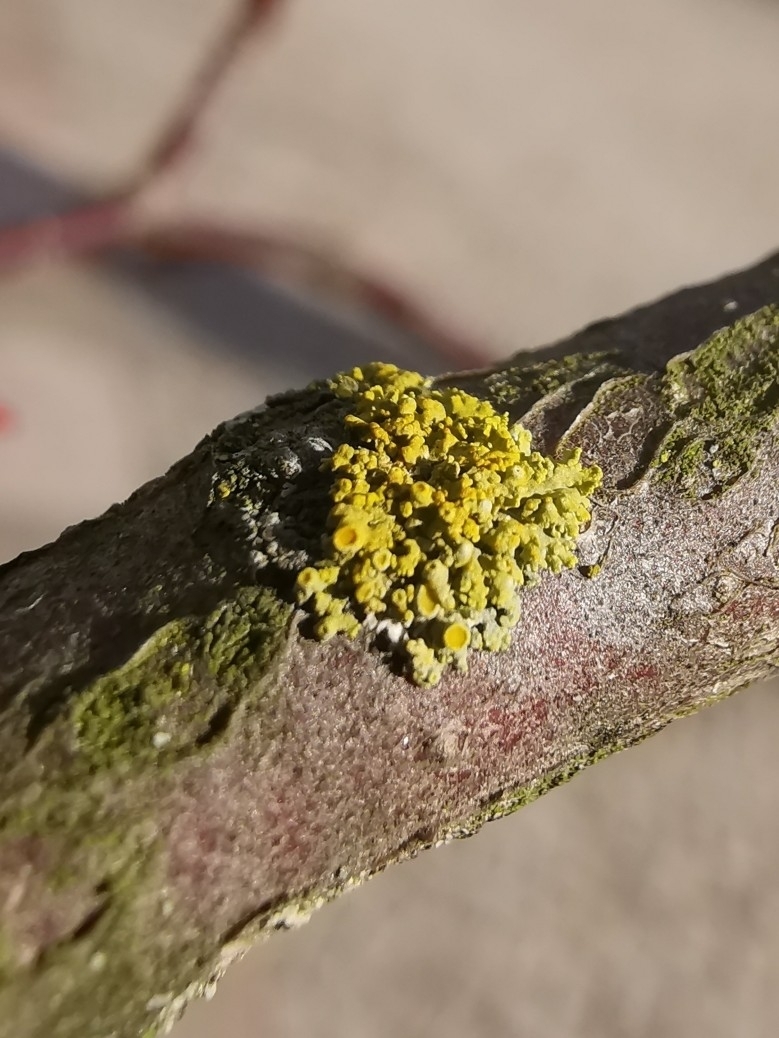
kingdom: Fungi
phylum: Ascomycota
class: Lecanoromycetes
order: Teloschistales
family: Teloschistaceae
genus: Polycauliona
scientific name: Polycauliona polycarpa
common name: Pin-cushion sunburst lichen
